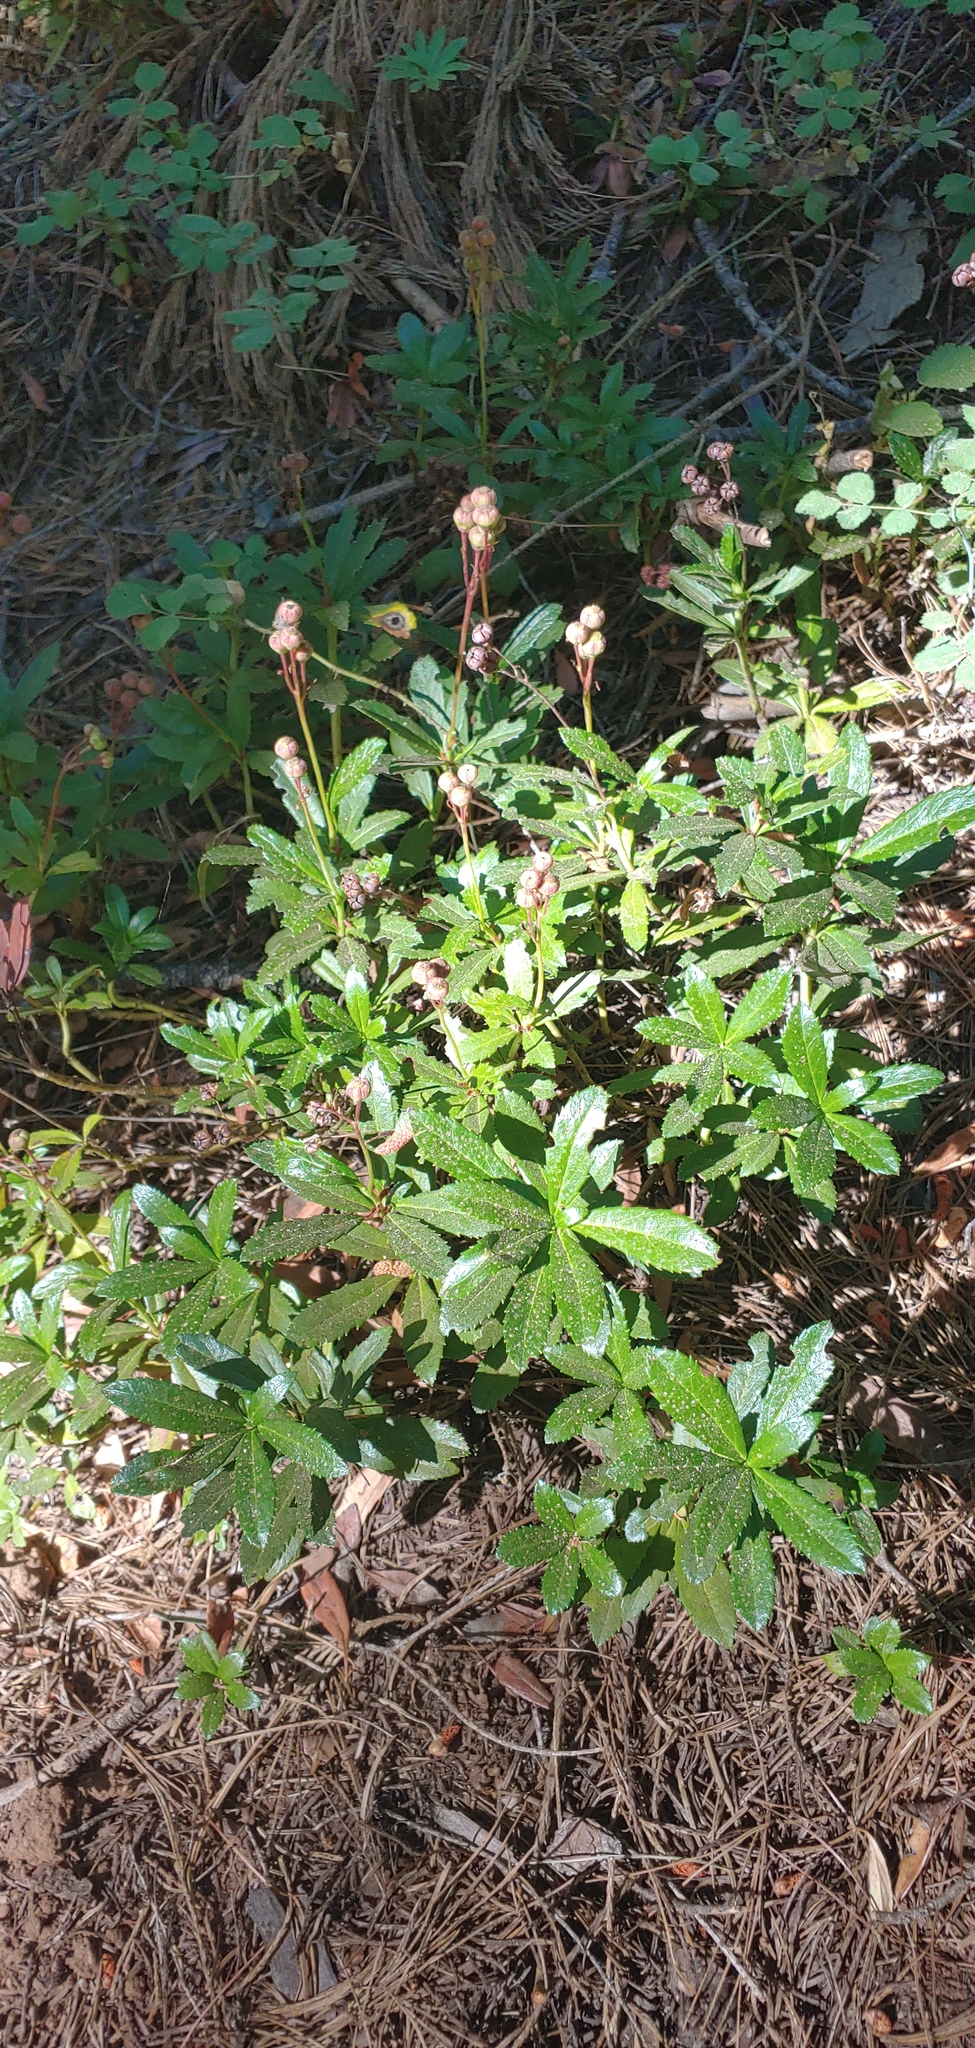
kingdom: Plantae
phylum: Tracheophyta
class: Magnoliopsida
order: Ericales
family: Ericaceae
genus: Chimaphila
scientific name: Chimaphila umbellata
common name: Pipsissewa
